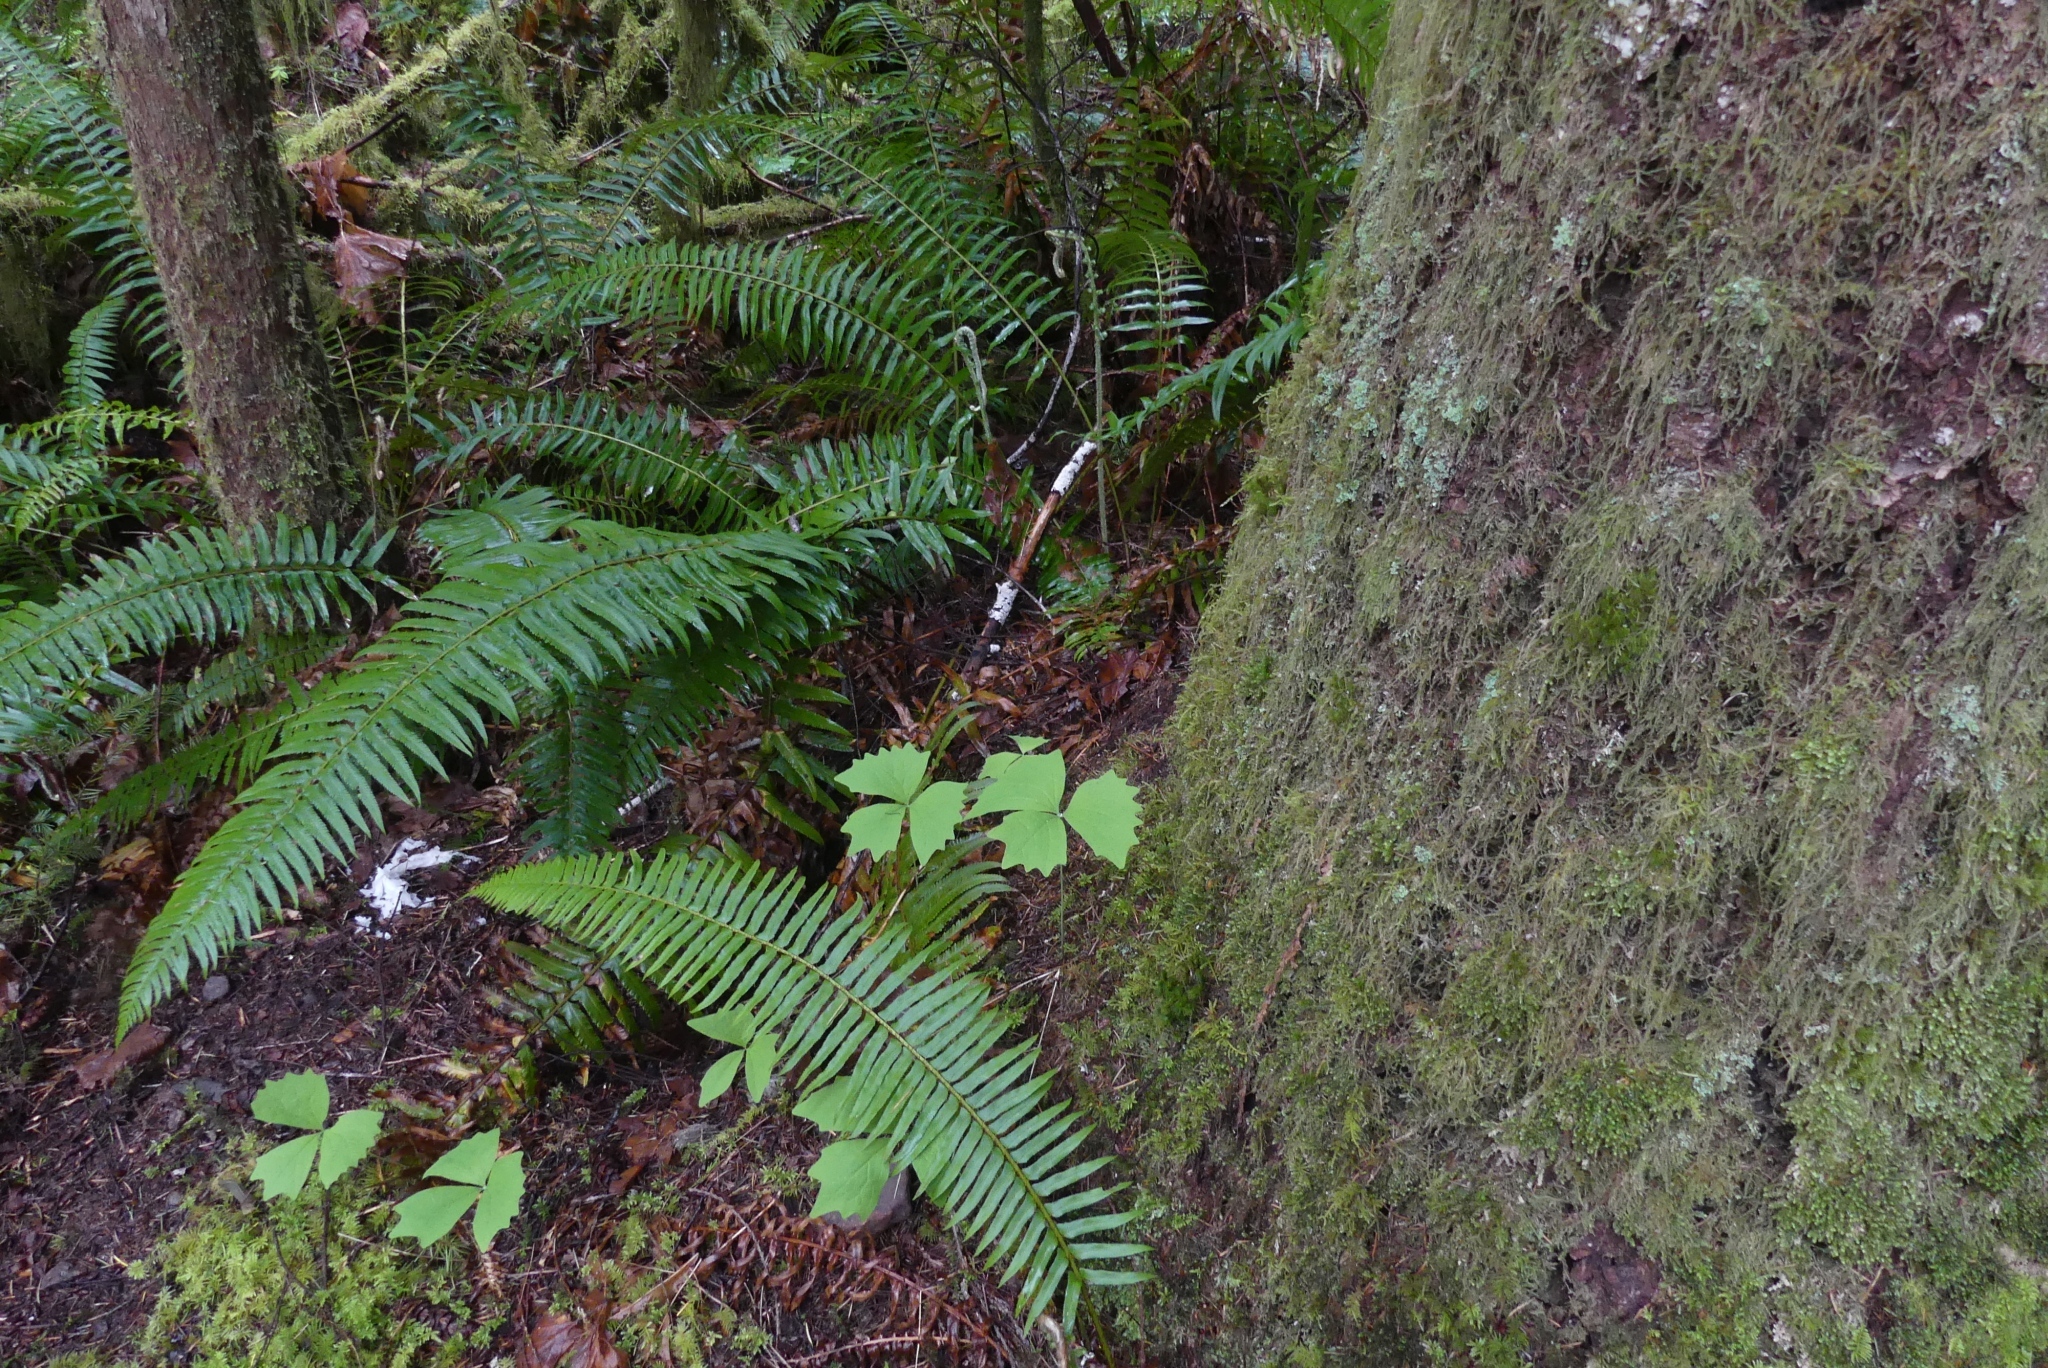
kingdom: Plantae
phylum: Tracheophyta
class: Magnoliopsida
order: Ranunculales
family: Berberidaceae
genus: Achlys
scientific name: Achlys triphylla
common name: Vanilla-leaf
